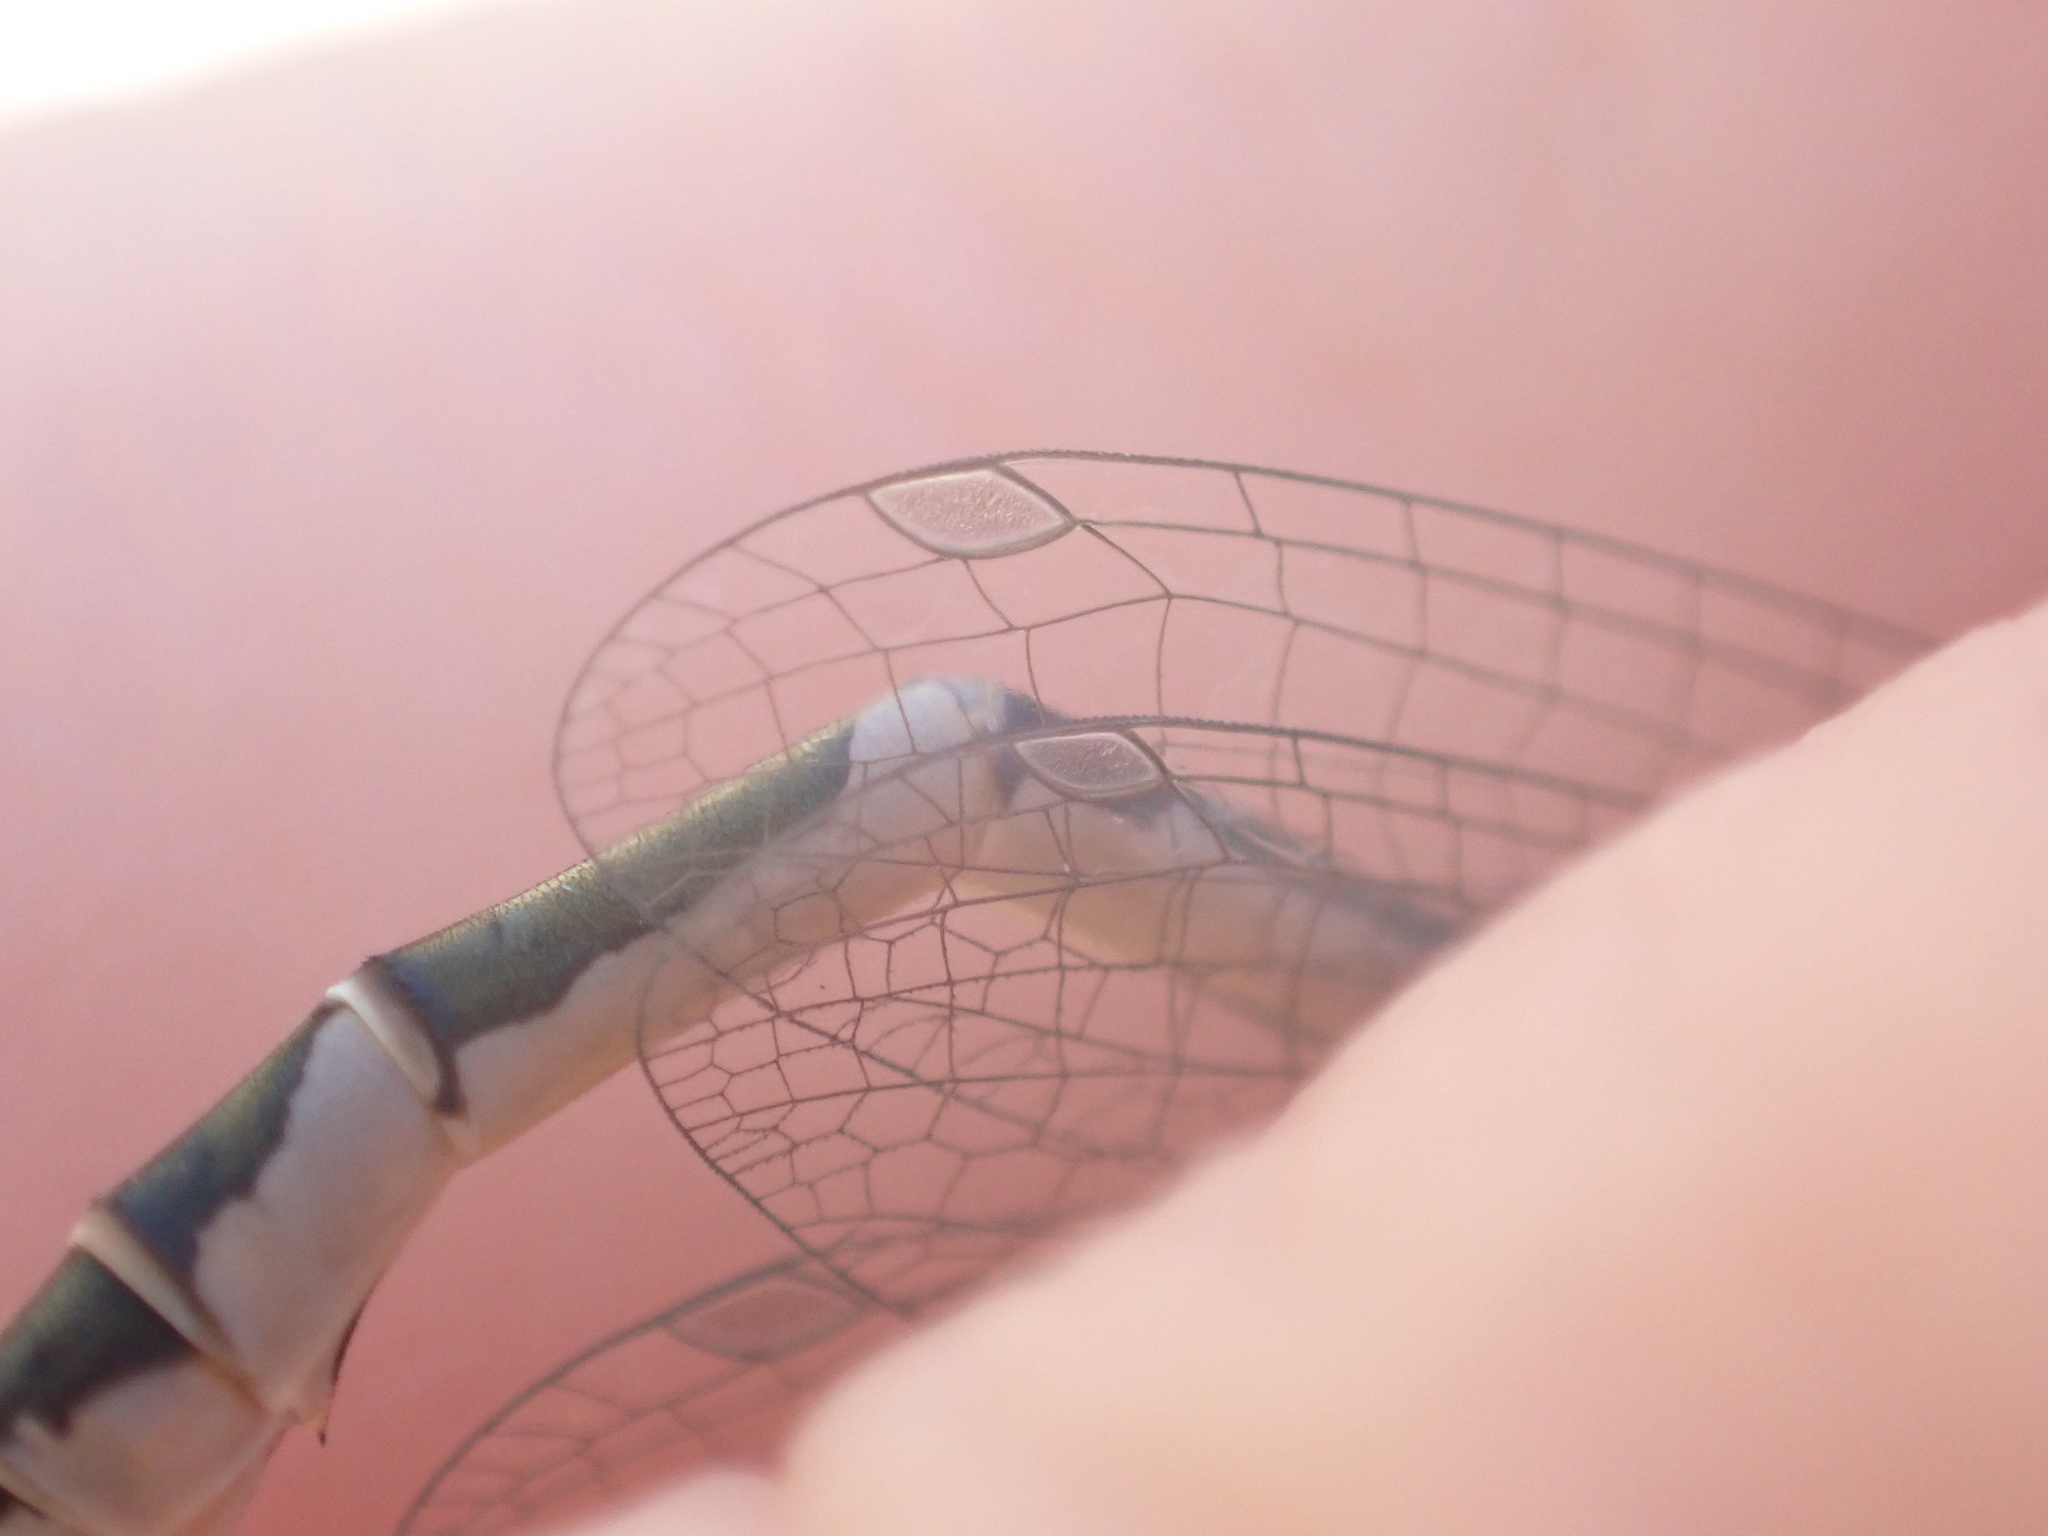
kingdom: Animalia
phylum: Arthropoda
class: Insecta
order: Odonata
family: Coenagrionidae
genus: Enallagma
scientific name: Enallagma cyathigerum
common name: Common blue damselfly
